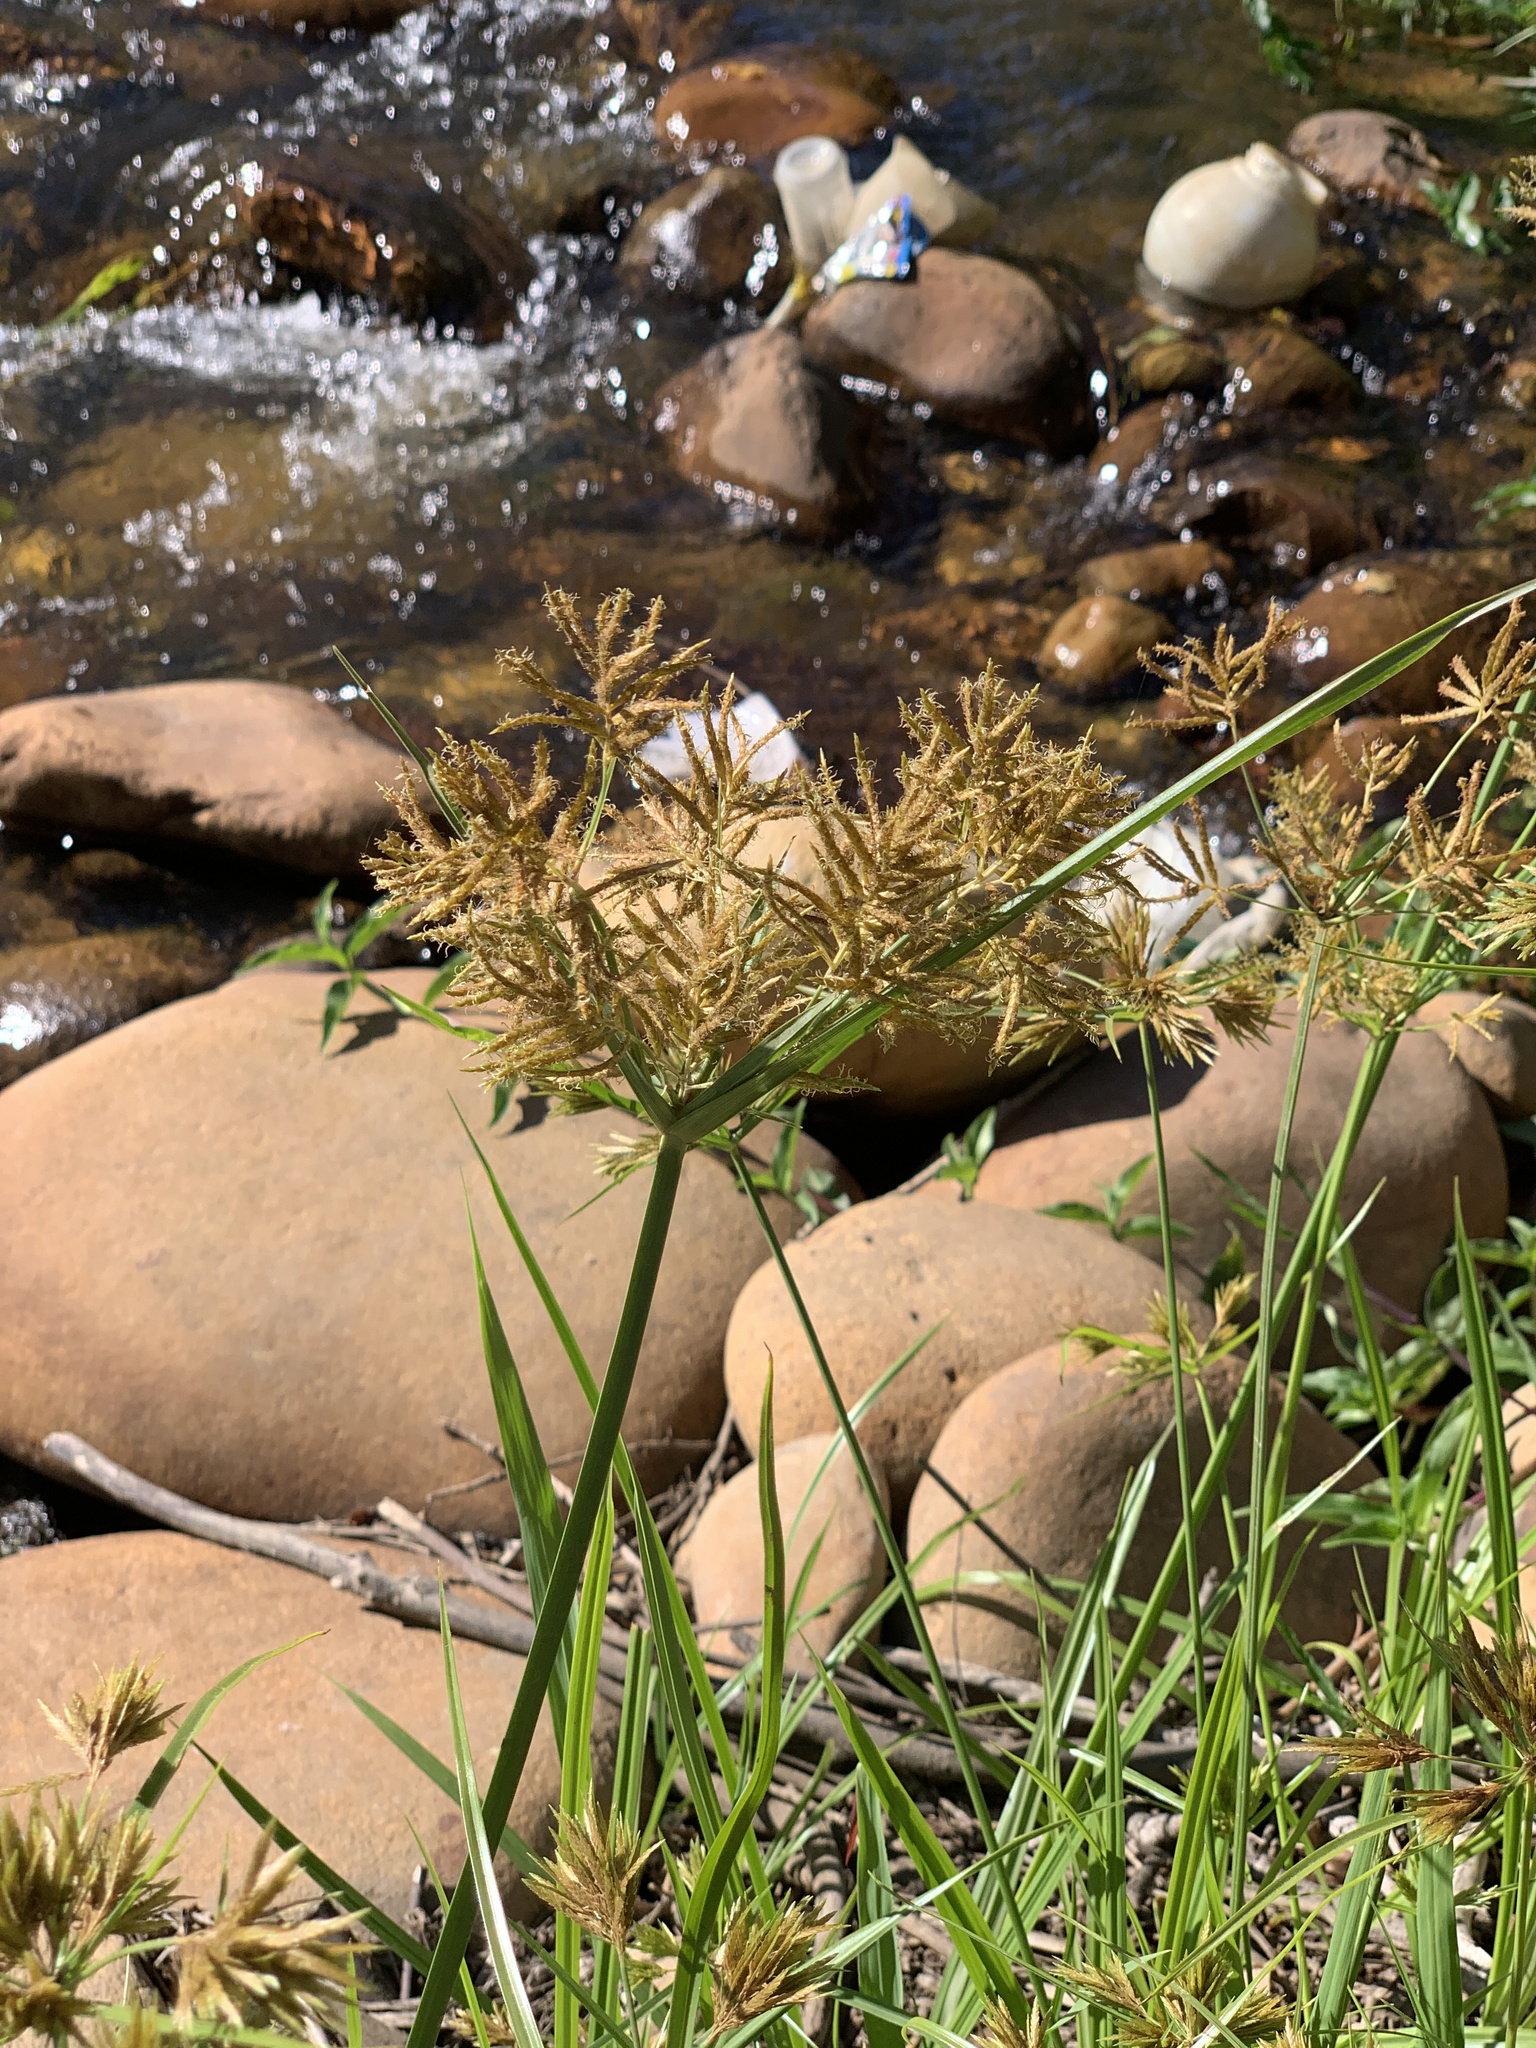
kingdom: Plantae
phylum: Tracheophyta
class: Liliopsida
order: Poales
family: Cyperaceae
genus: Cyperus
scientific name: Cyperus polystachyos
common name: Bunchy flat sedge
